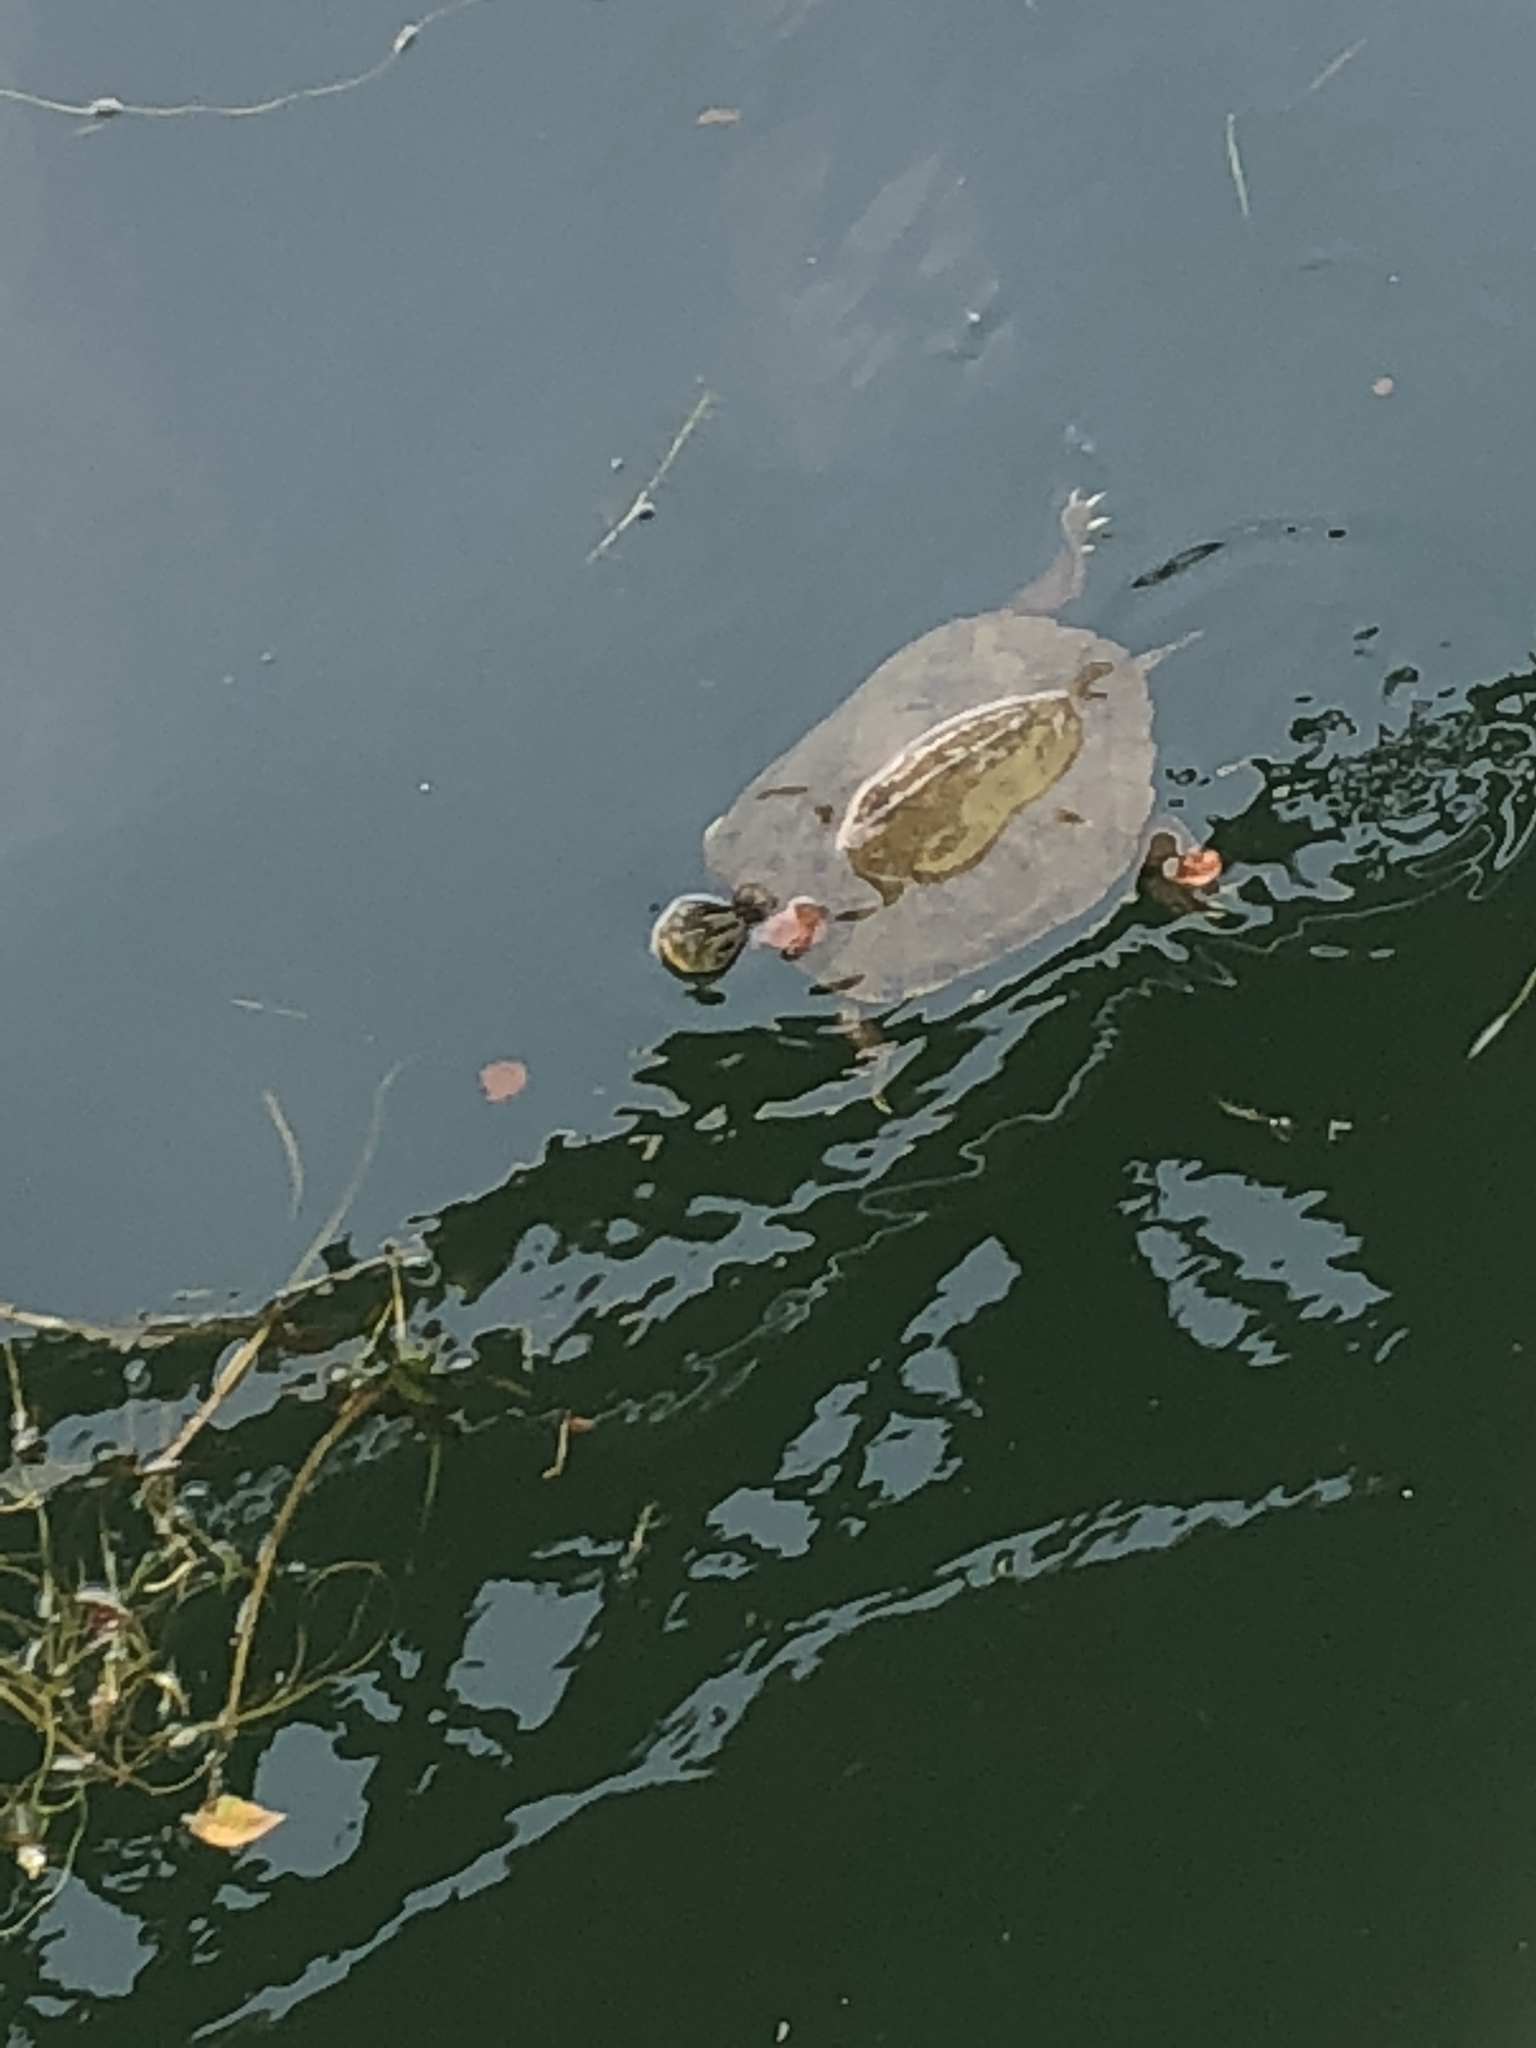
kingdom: Animalia
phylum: Chordata
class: Testudines
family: Emydidae
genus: Graptemys
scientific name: Graptemys geographica
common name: Common map turtle
